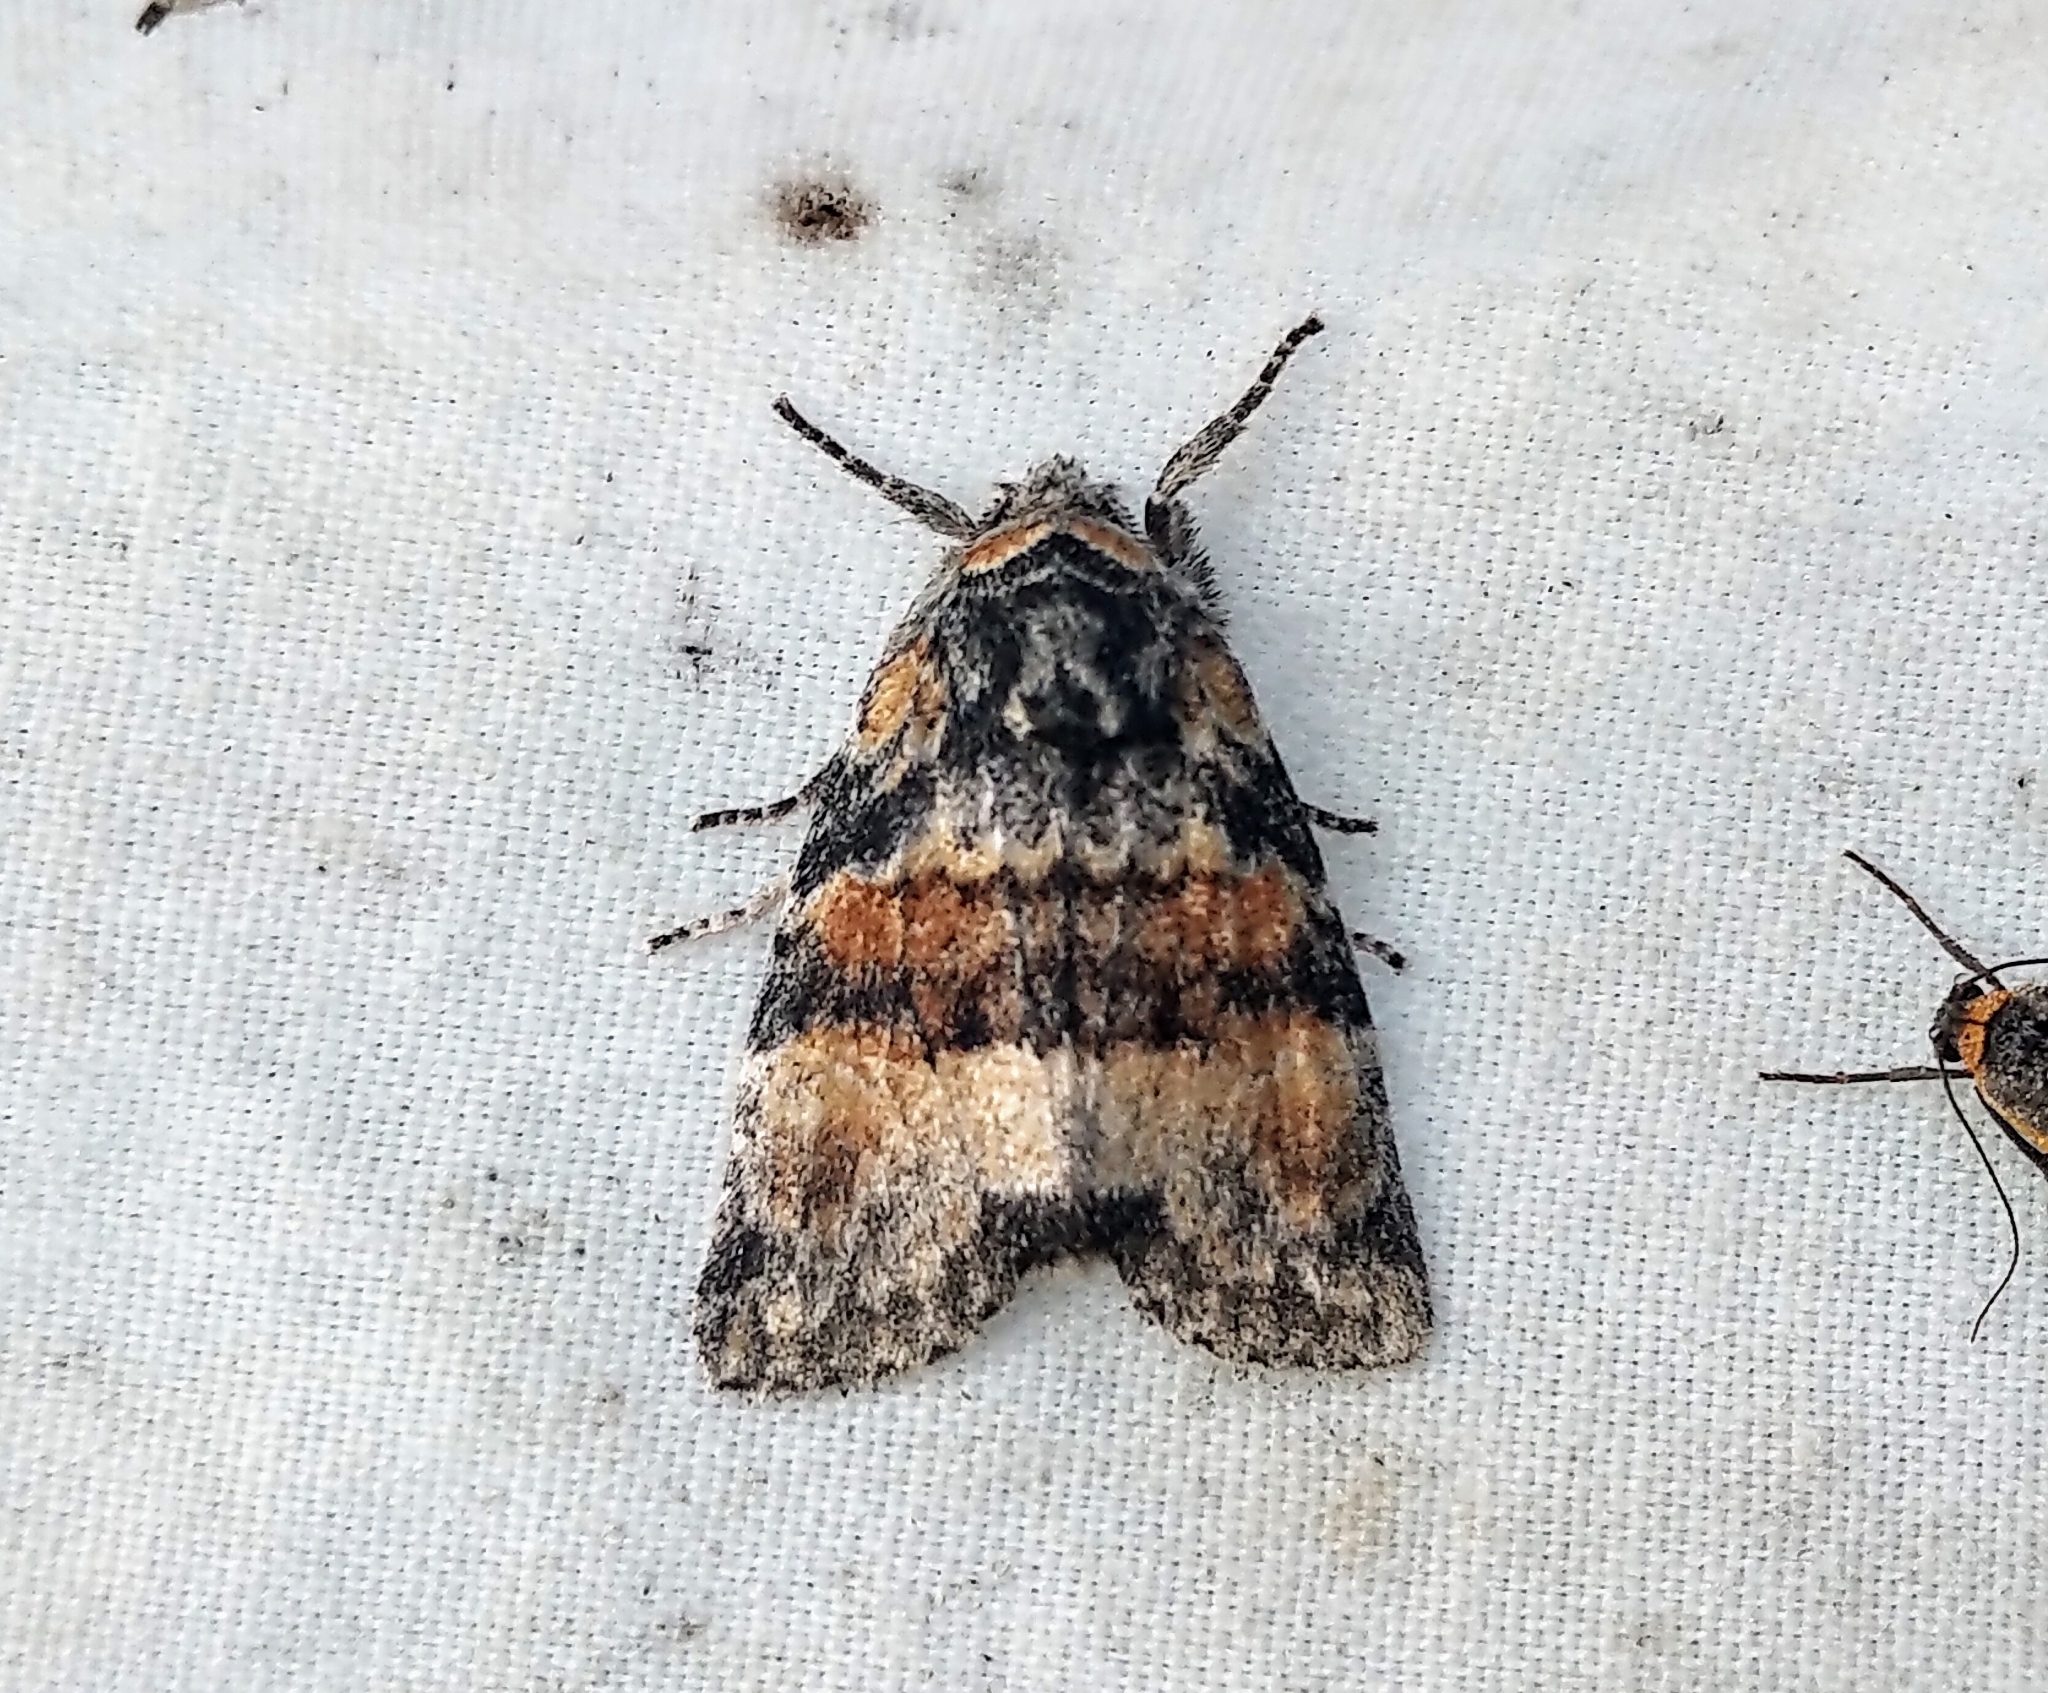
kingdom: Animalia
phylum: Arthropoda
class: Insecta
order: Lepidoptera
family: Noctuidae
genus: Brachylomia
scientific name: Brachylomia populi
